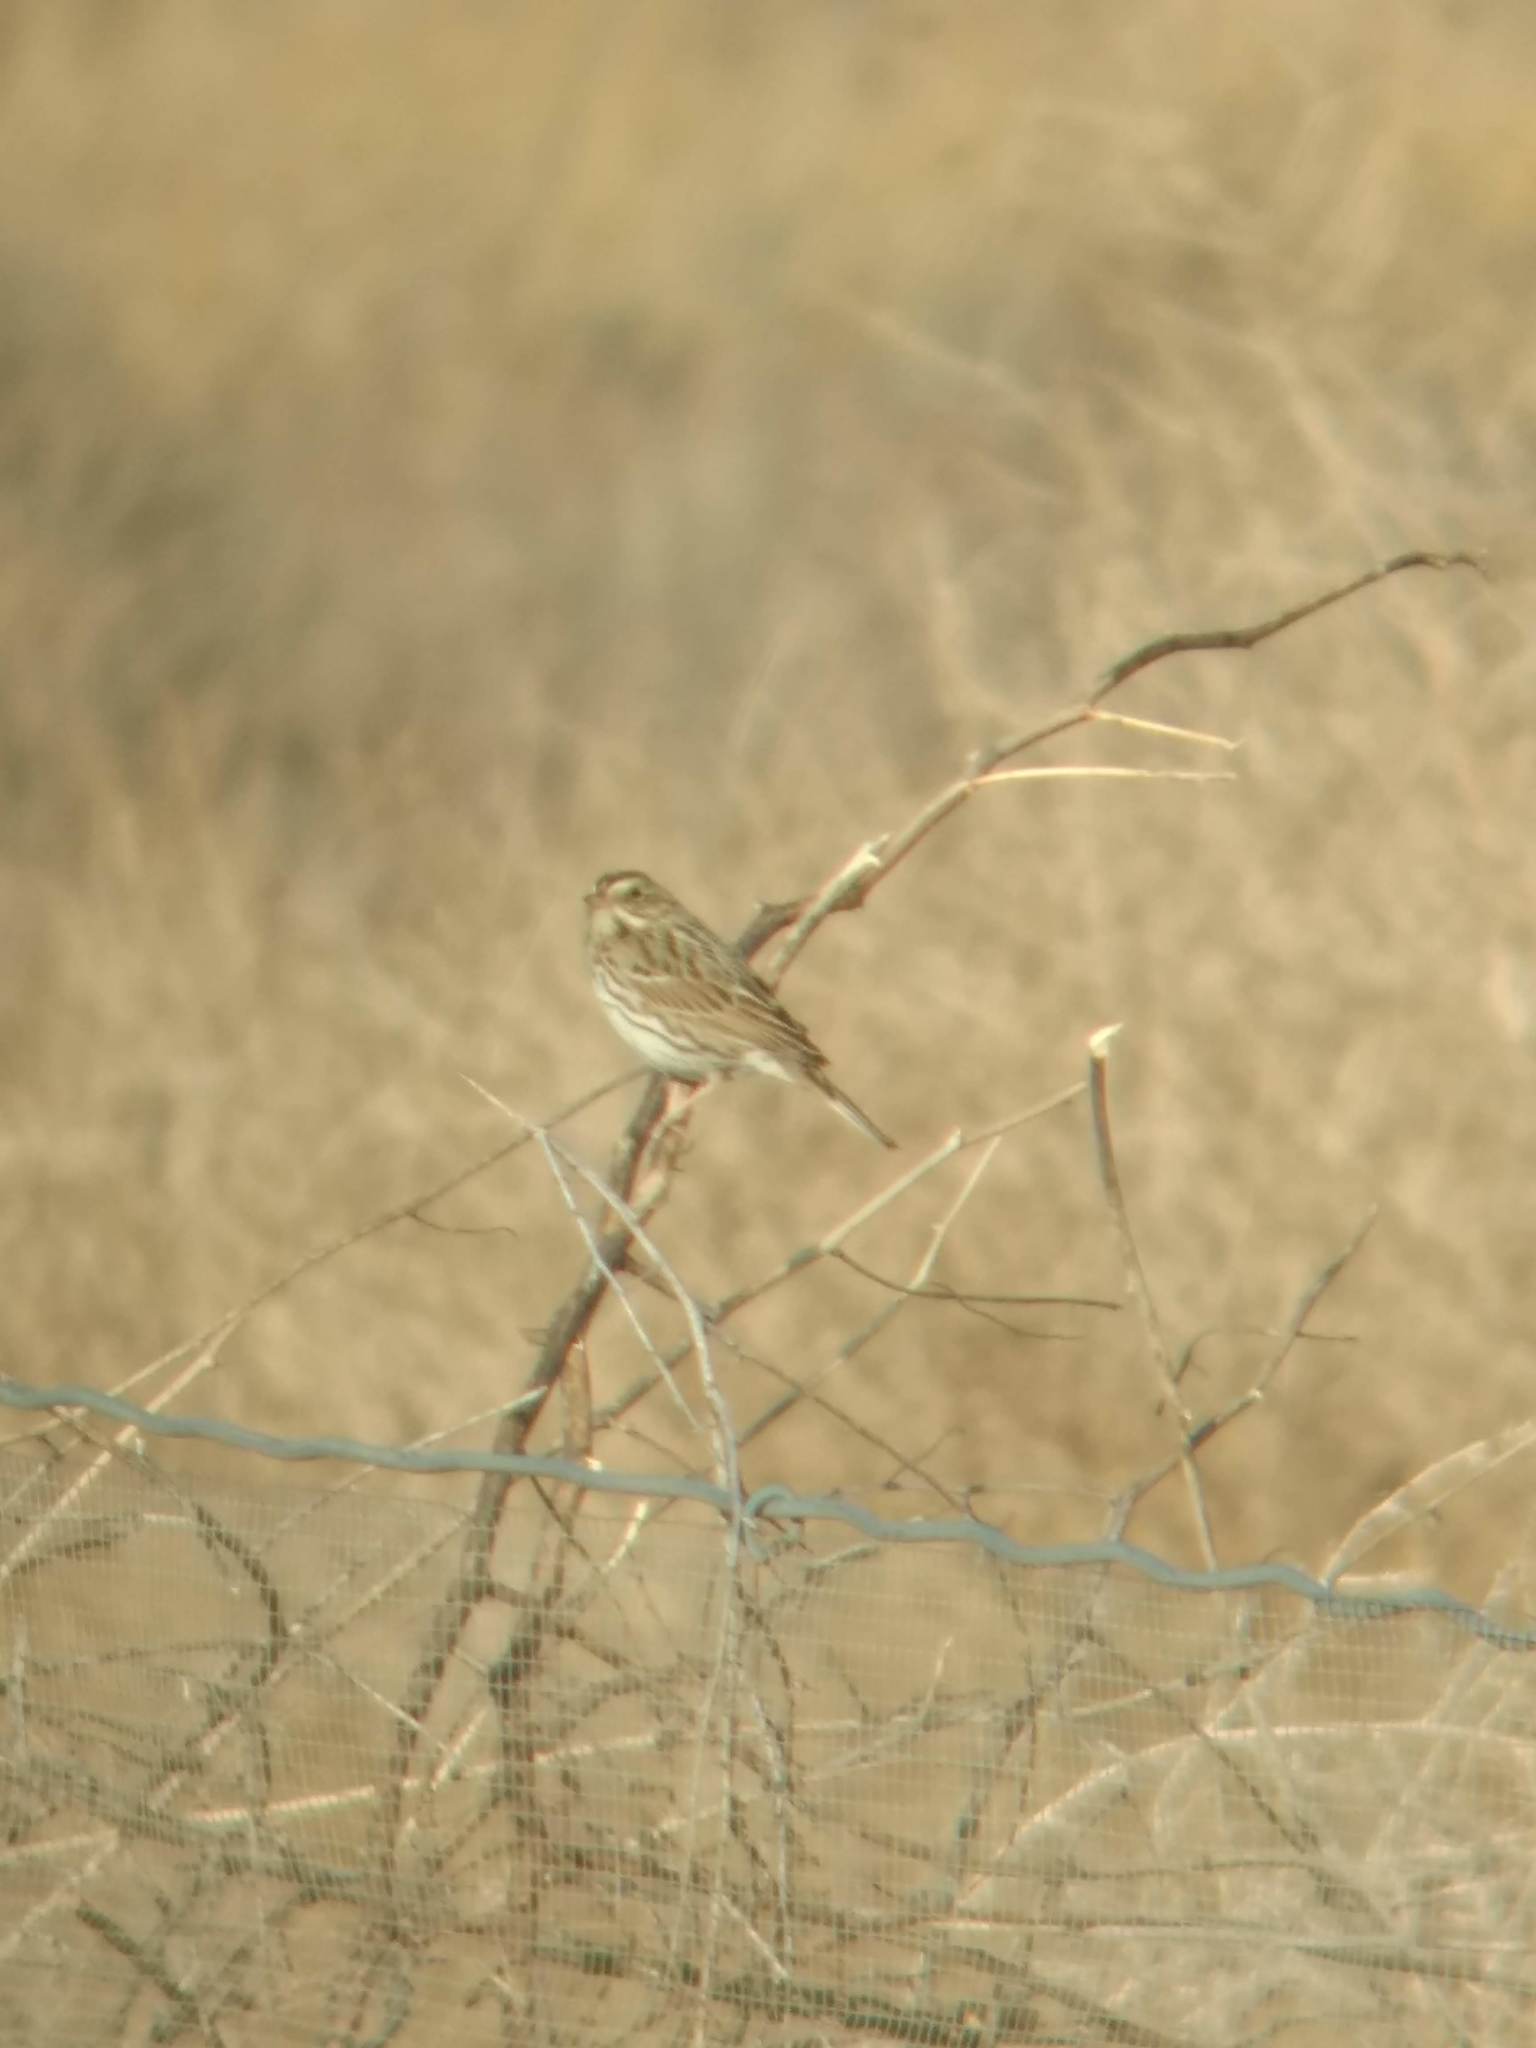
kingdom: Animalia
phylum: Chordata
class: Aves
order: Passeriformes
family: Passerellidae
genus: Passerculus
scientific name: Passerculus sandwichensis
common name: Savannah sparrow
